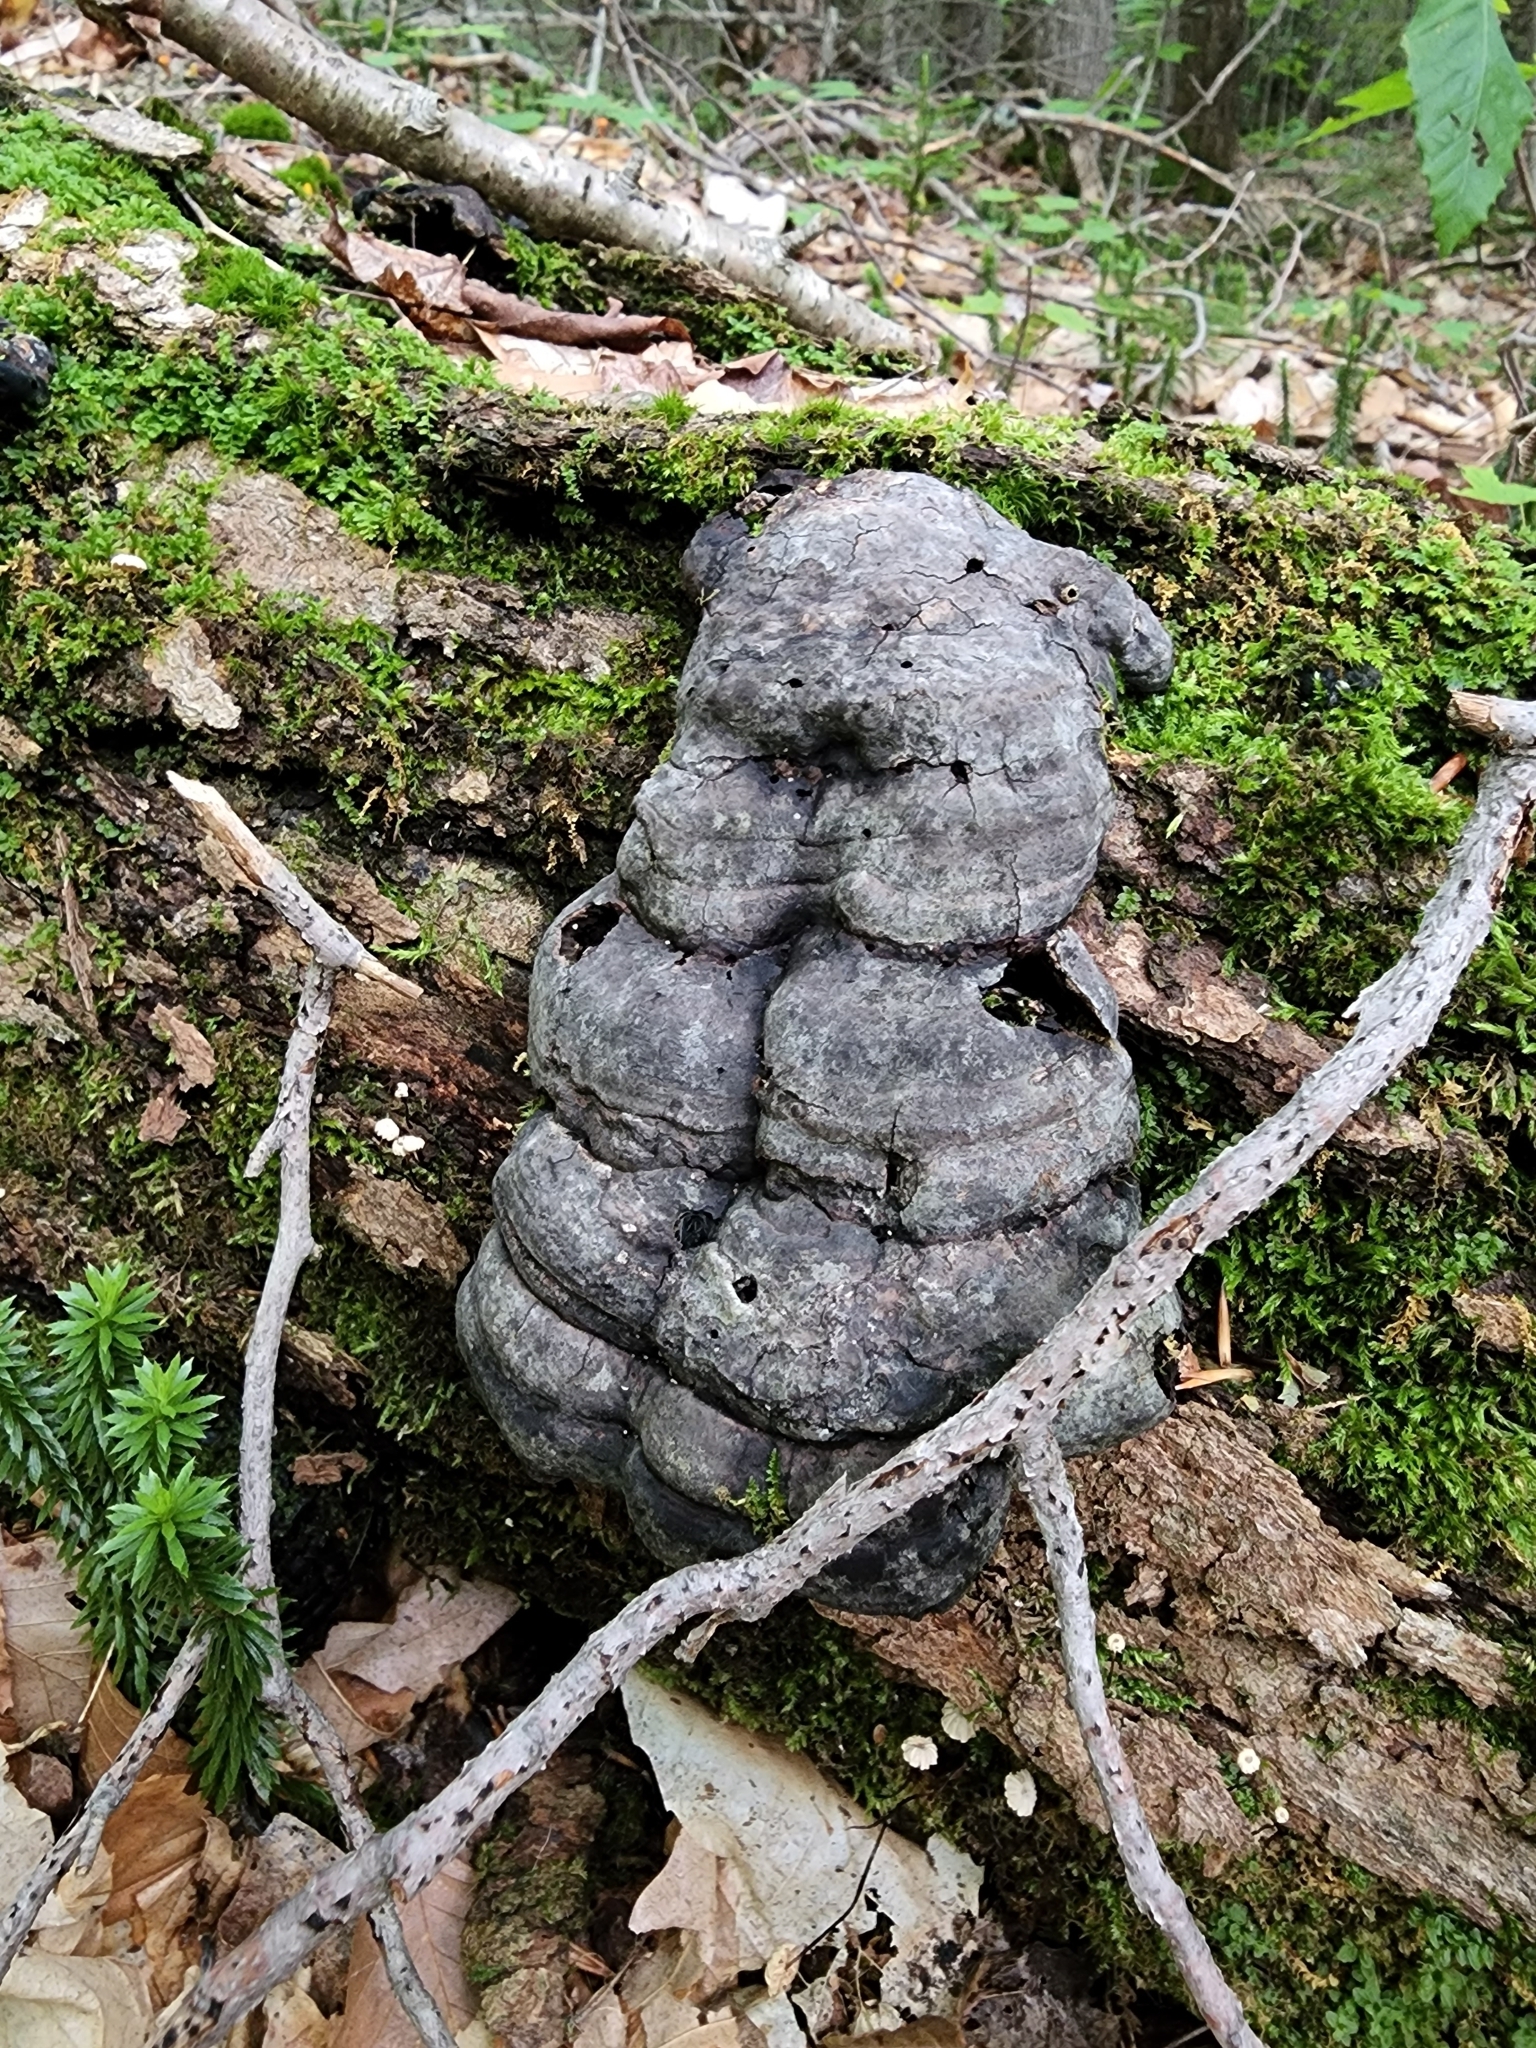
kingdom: Fungi
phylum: Basidiomycota
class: Agaricomycetes
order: Polyporales
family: Polyporaceae
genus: Fomes
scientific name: Fomes fomentarius
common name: Hoof fungus
